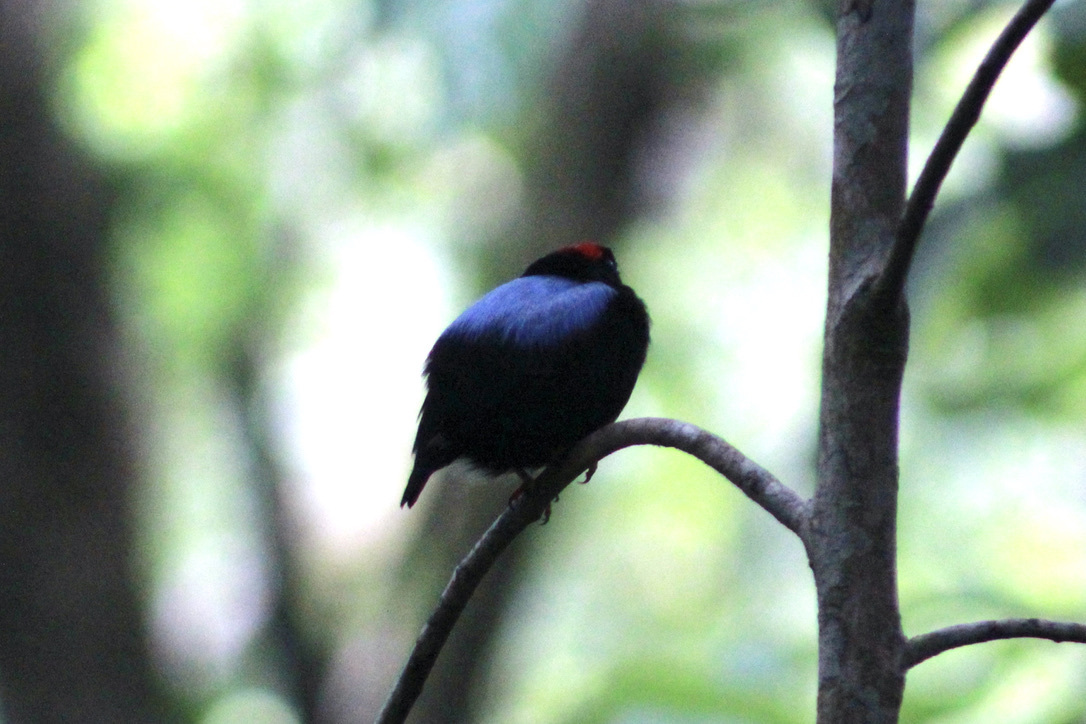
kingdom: Animalia
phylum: Chordata
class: Aves
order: Passeriformes
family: Pipridae
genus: Chiroxiphia
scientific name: Chiroxiphia pareola
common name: Blue-backed manakin
